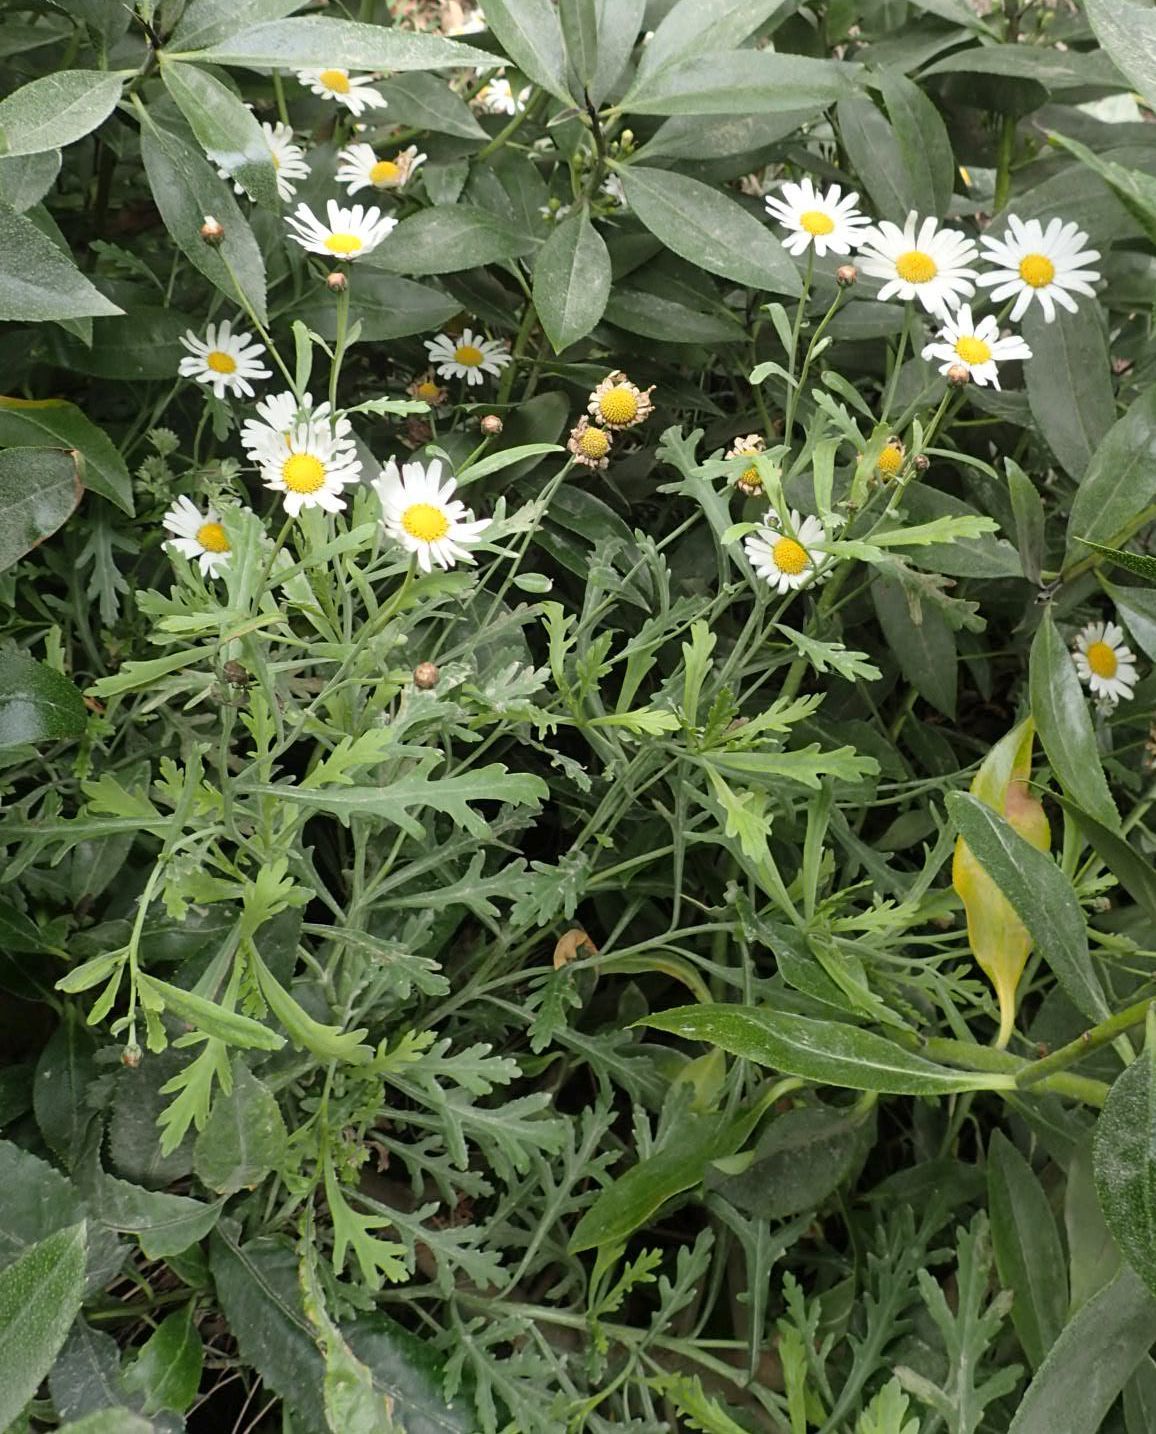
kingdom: Plantae
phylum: Tracheophyta
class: Magnoliopsida
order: Asterales
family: Asteraceae
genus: Argyranthemum
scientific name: Argyranthemum frutescens
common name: Paris daisy
